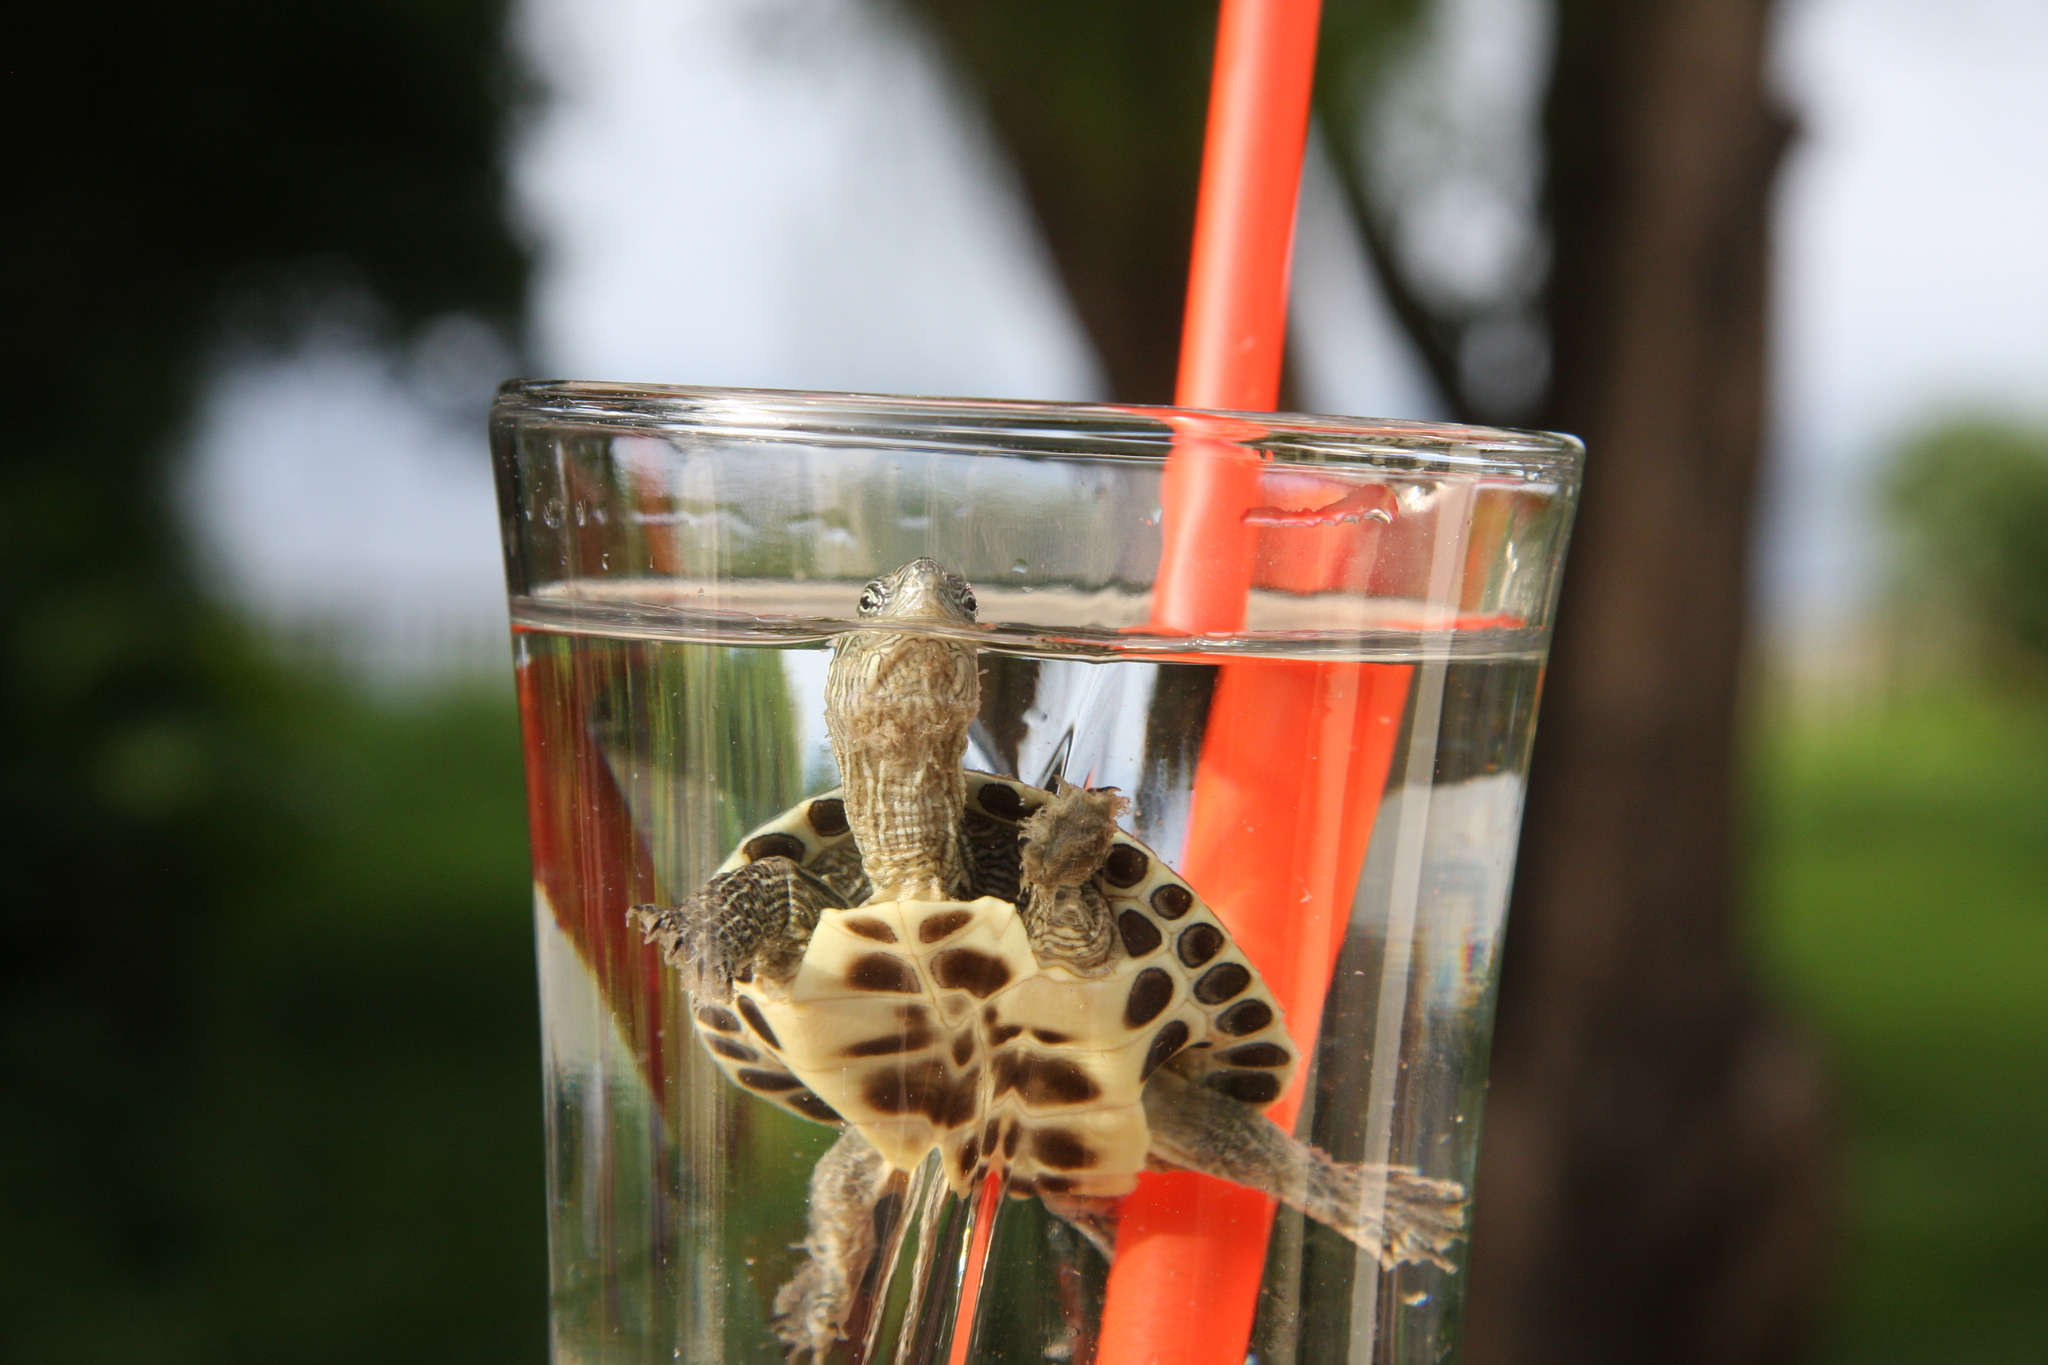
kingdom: Animalia
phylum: Chordata
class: Testudines
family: Geoemydidae
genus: Mauremys
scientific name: Mauremys sinensis
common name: Chinese stripe-necked turtle
